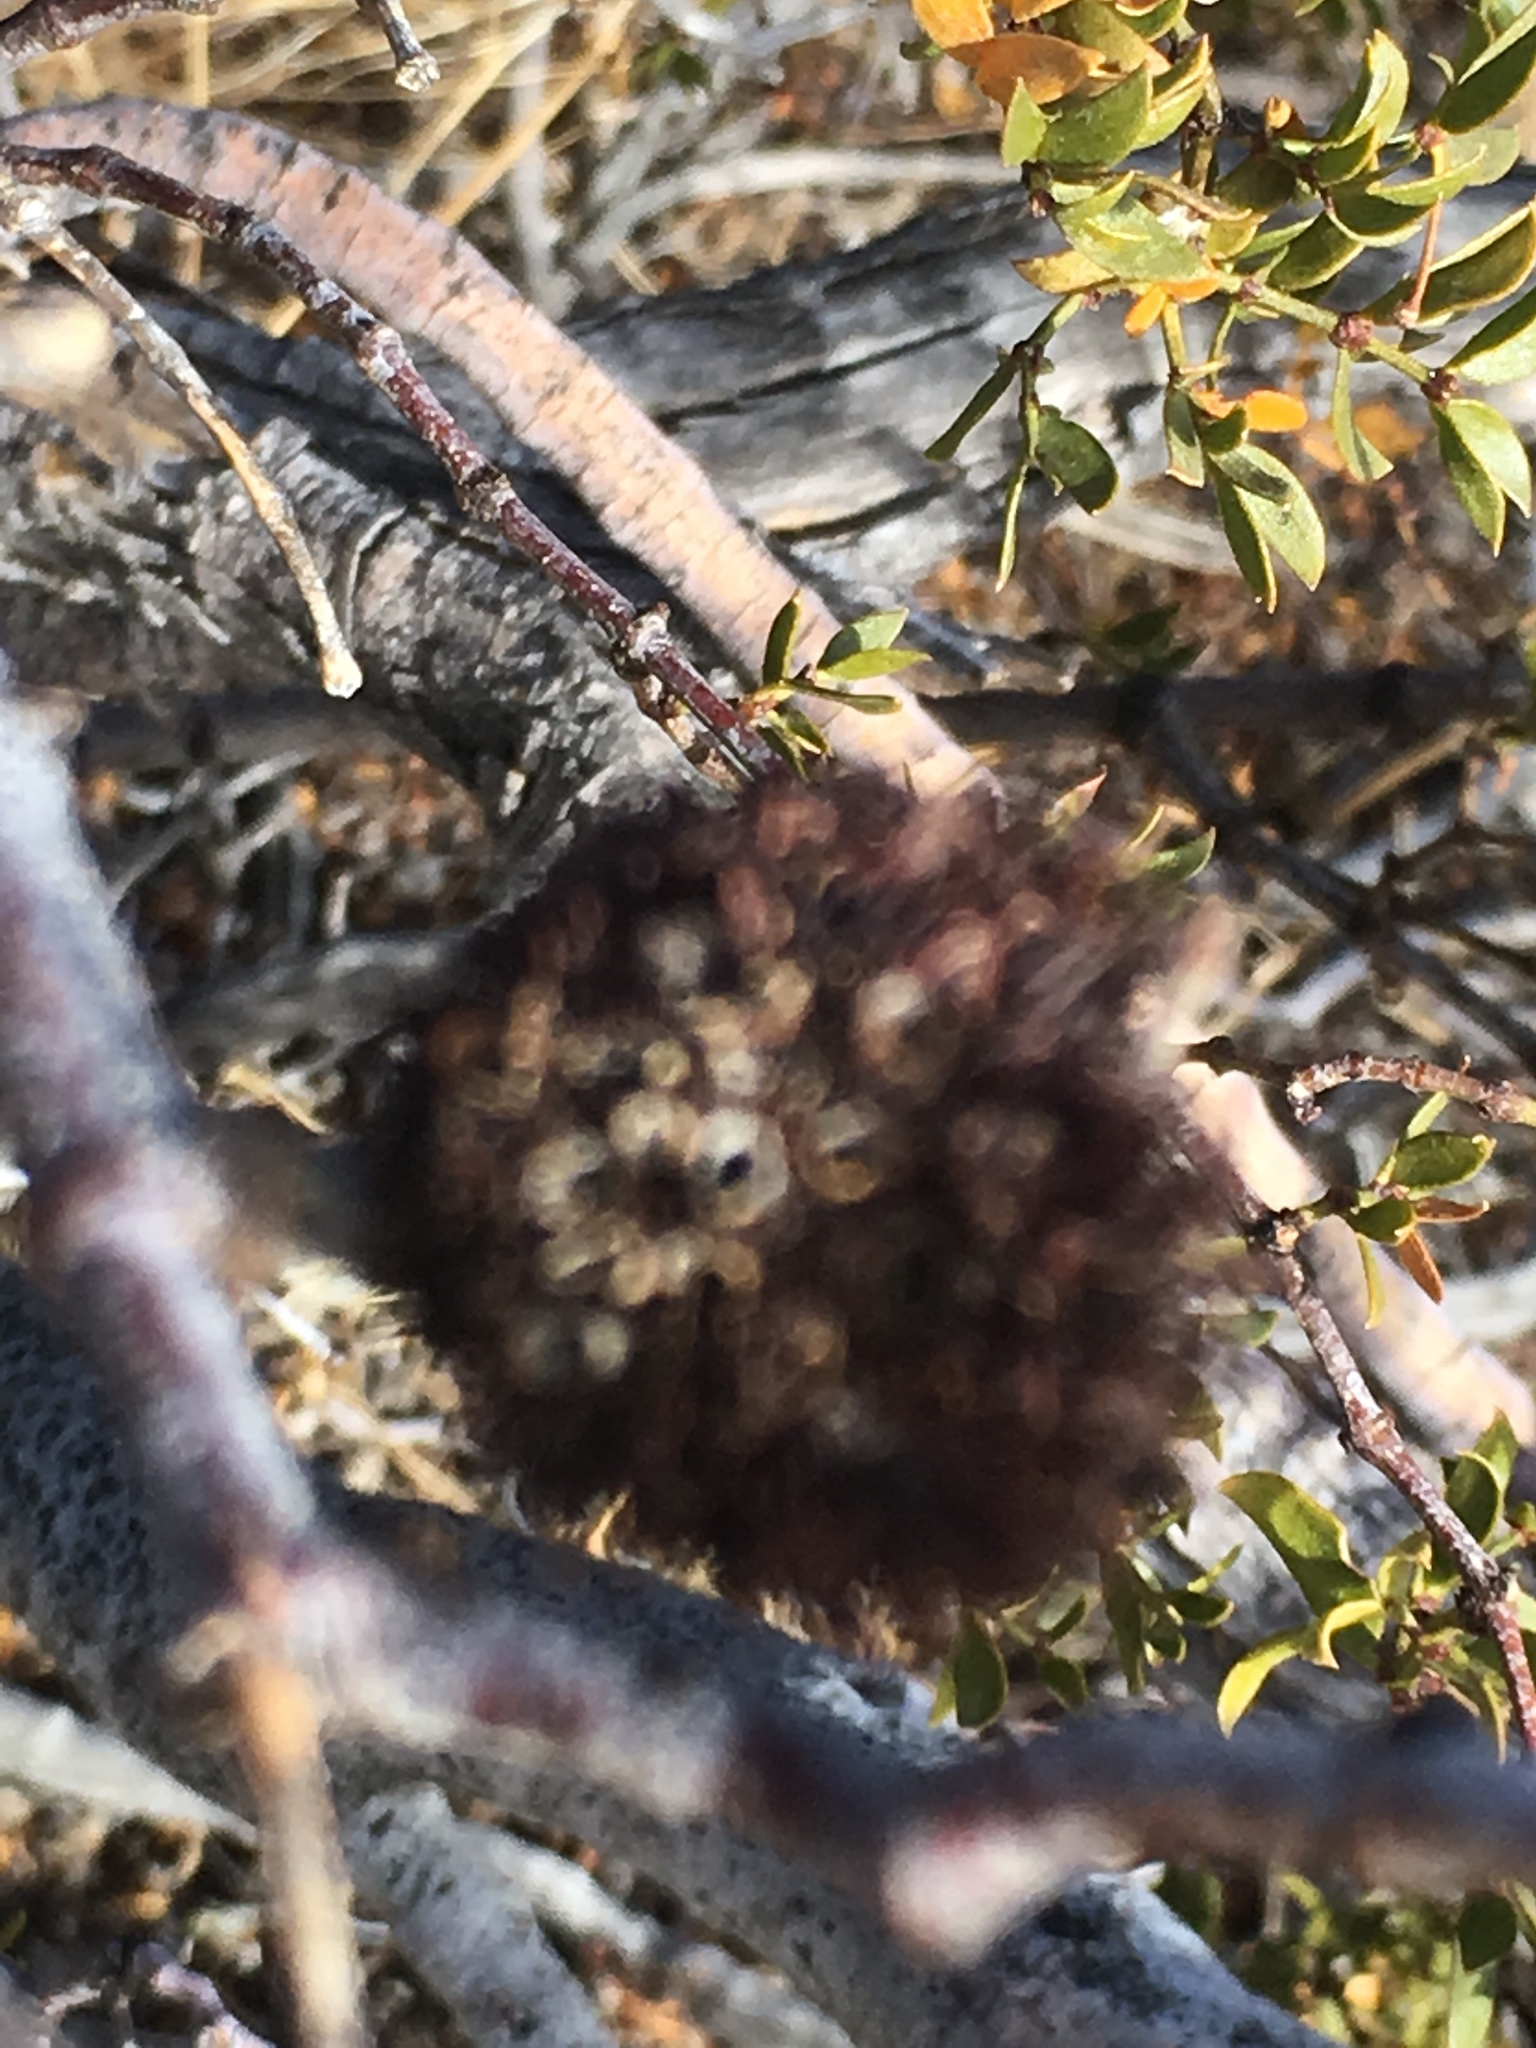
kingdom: Animalia
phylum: Arthropoda
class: Insecta
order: Diptera
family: Cecidomyiidae
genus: Asphondylia
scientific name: Asphondylia auripila
